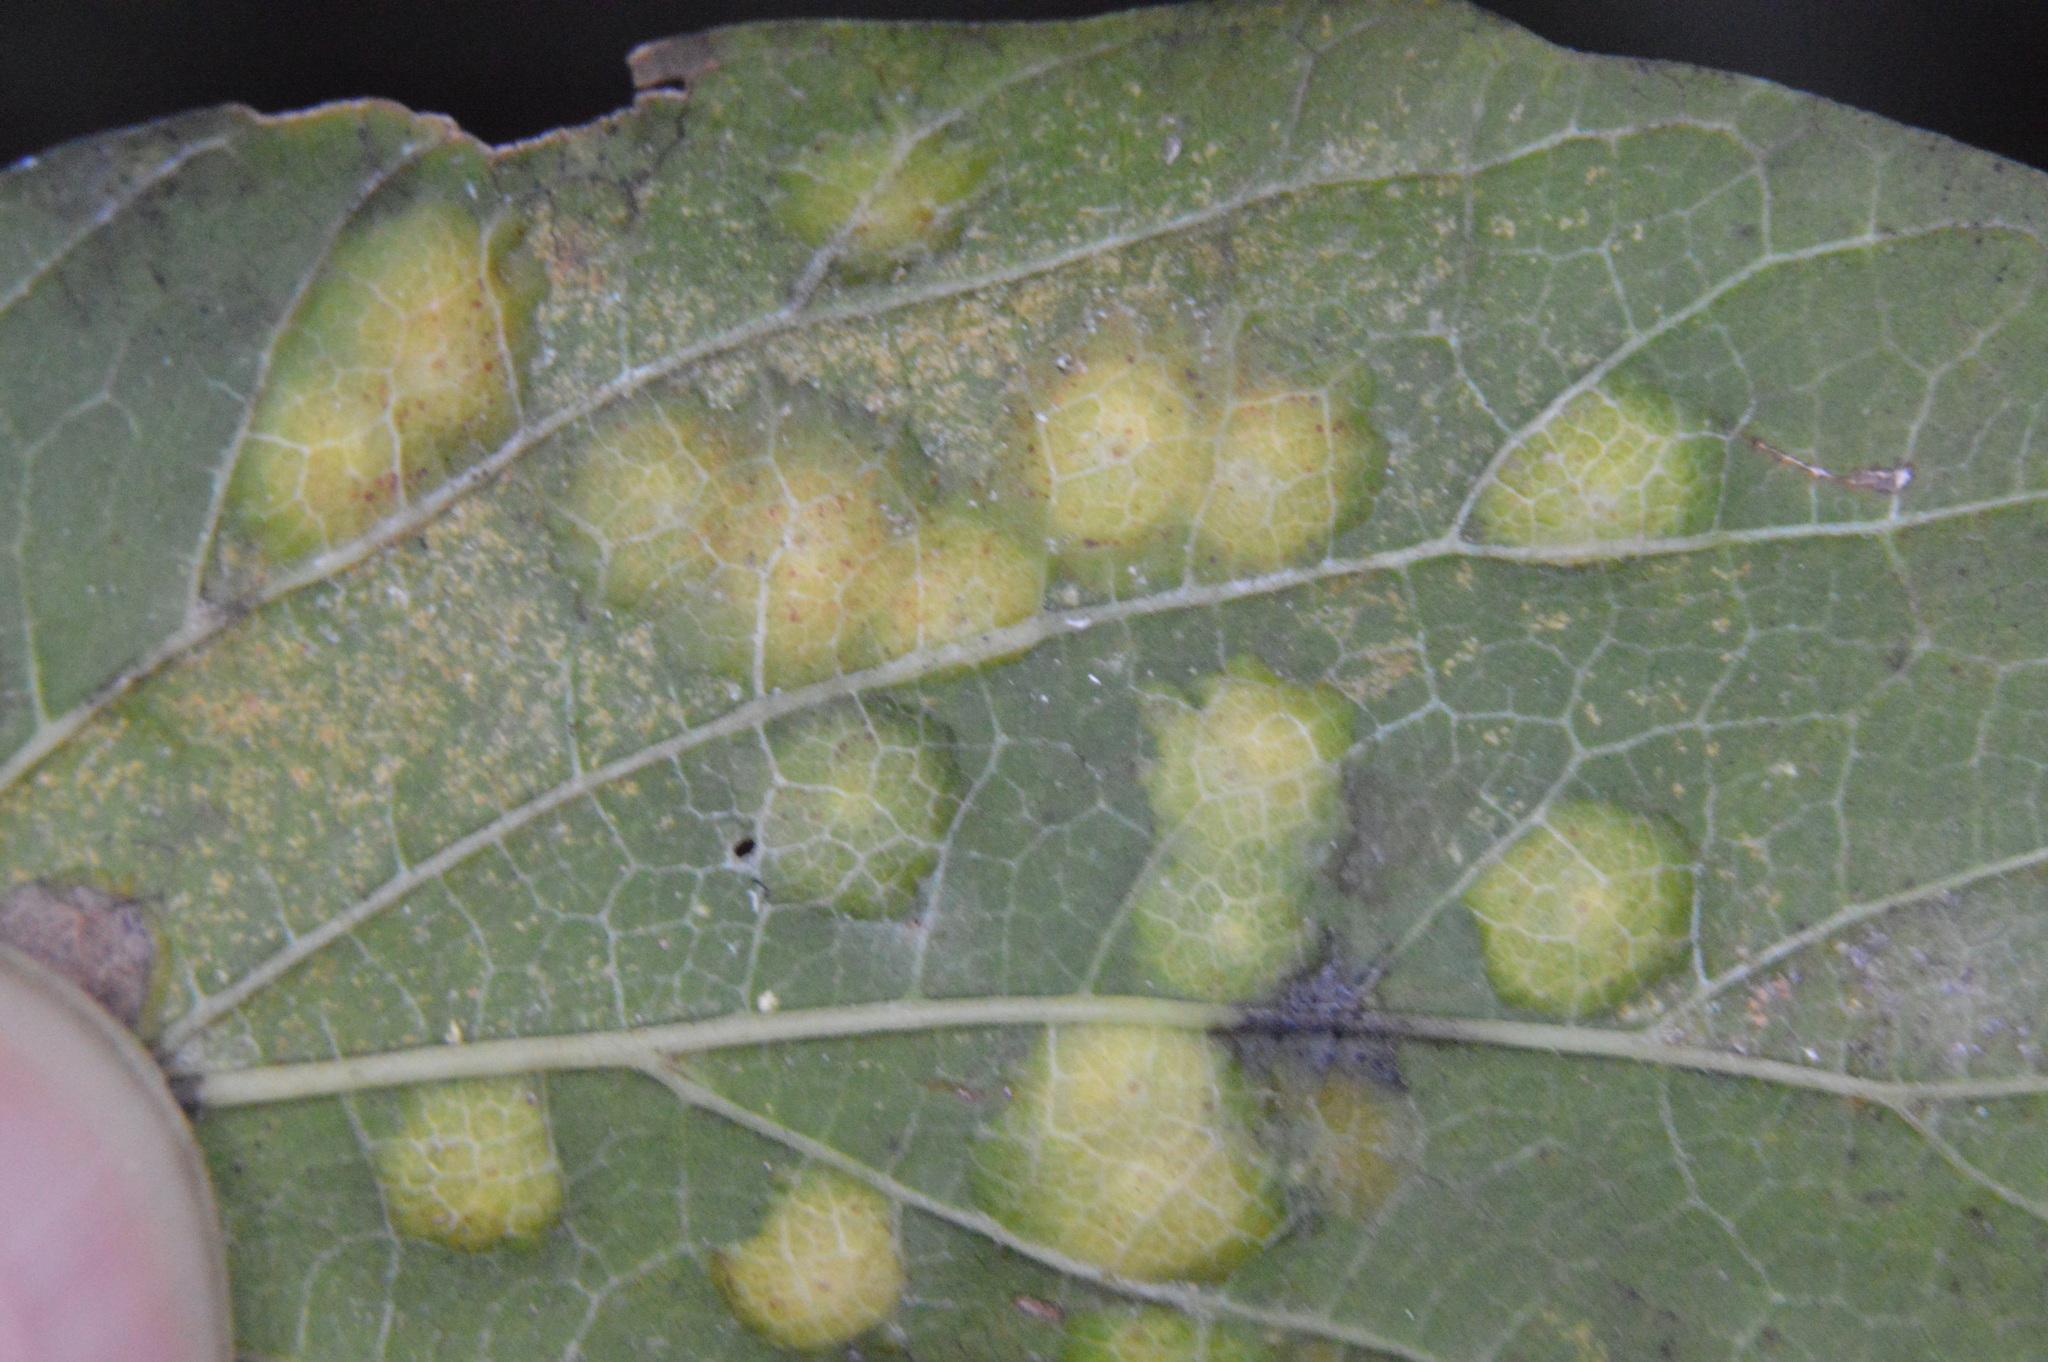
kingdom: Animalia
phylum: Arthropoda
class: Insecta
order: Hemiptera
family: Aphalaridae
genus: Pachypsylla
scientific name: Pachypsylla celtidisvesicula
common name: Hackberry blister gall psyllid
